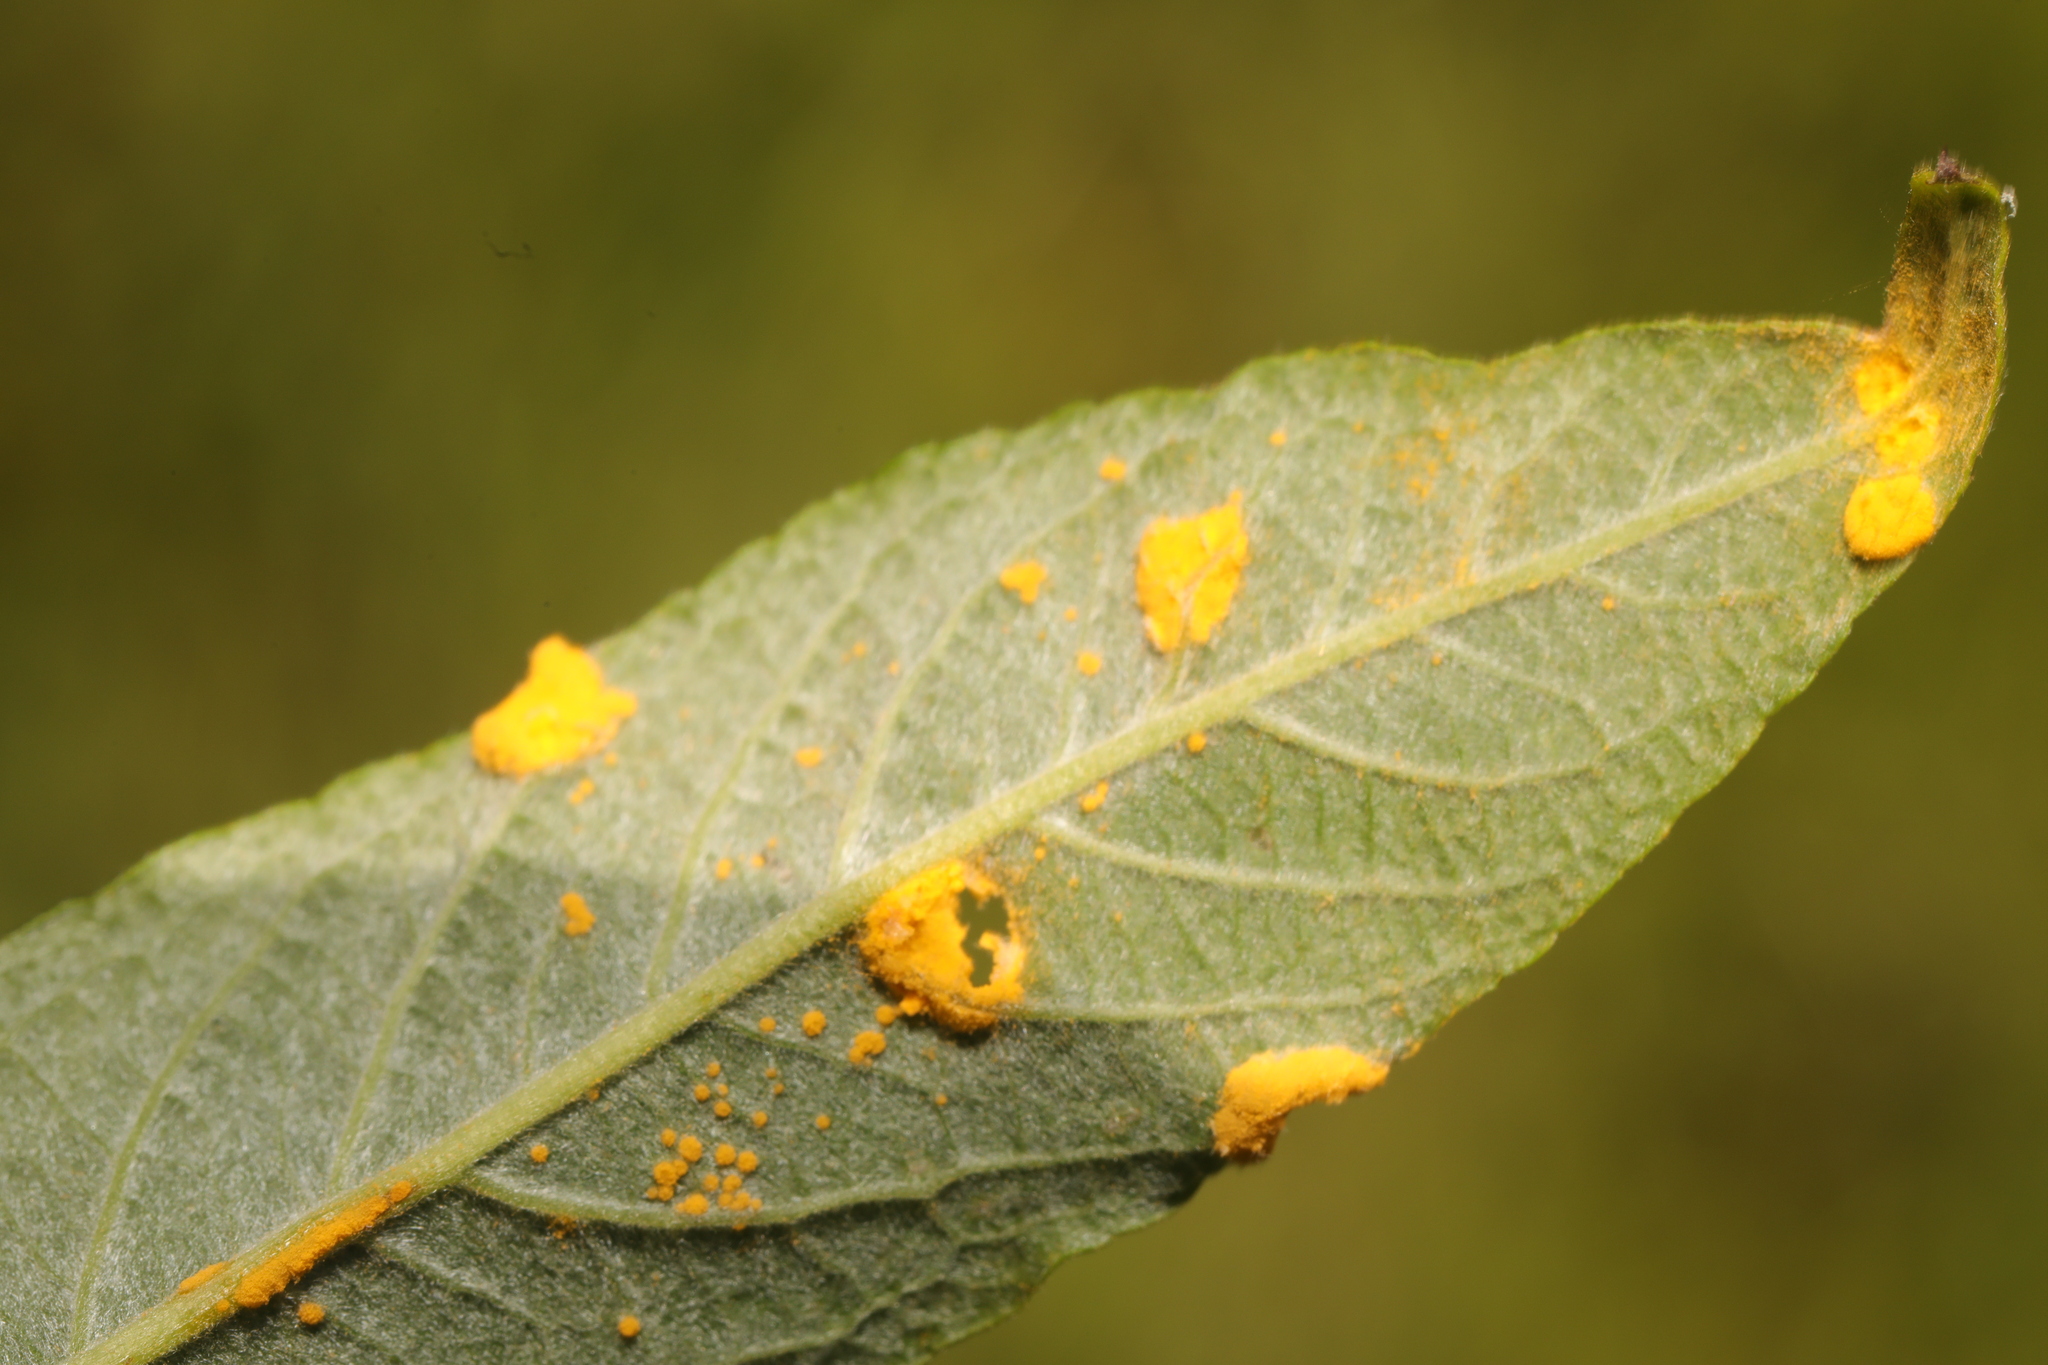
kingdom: Fungi
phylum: Basidiomycota
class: Pucciniomycetes
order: Pucciniales
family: Melampsoraceae
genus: Melampsora
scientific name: Melampsora
